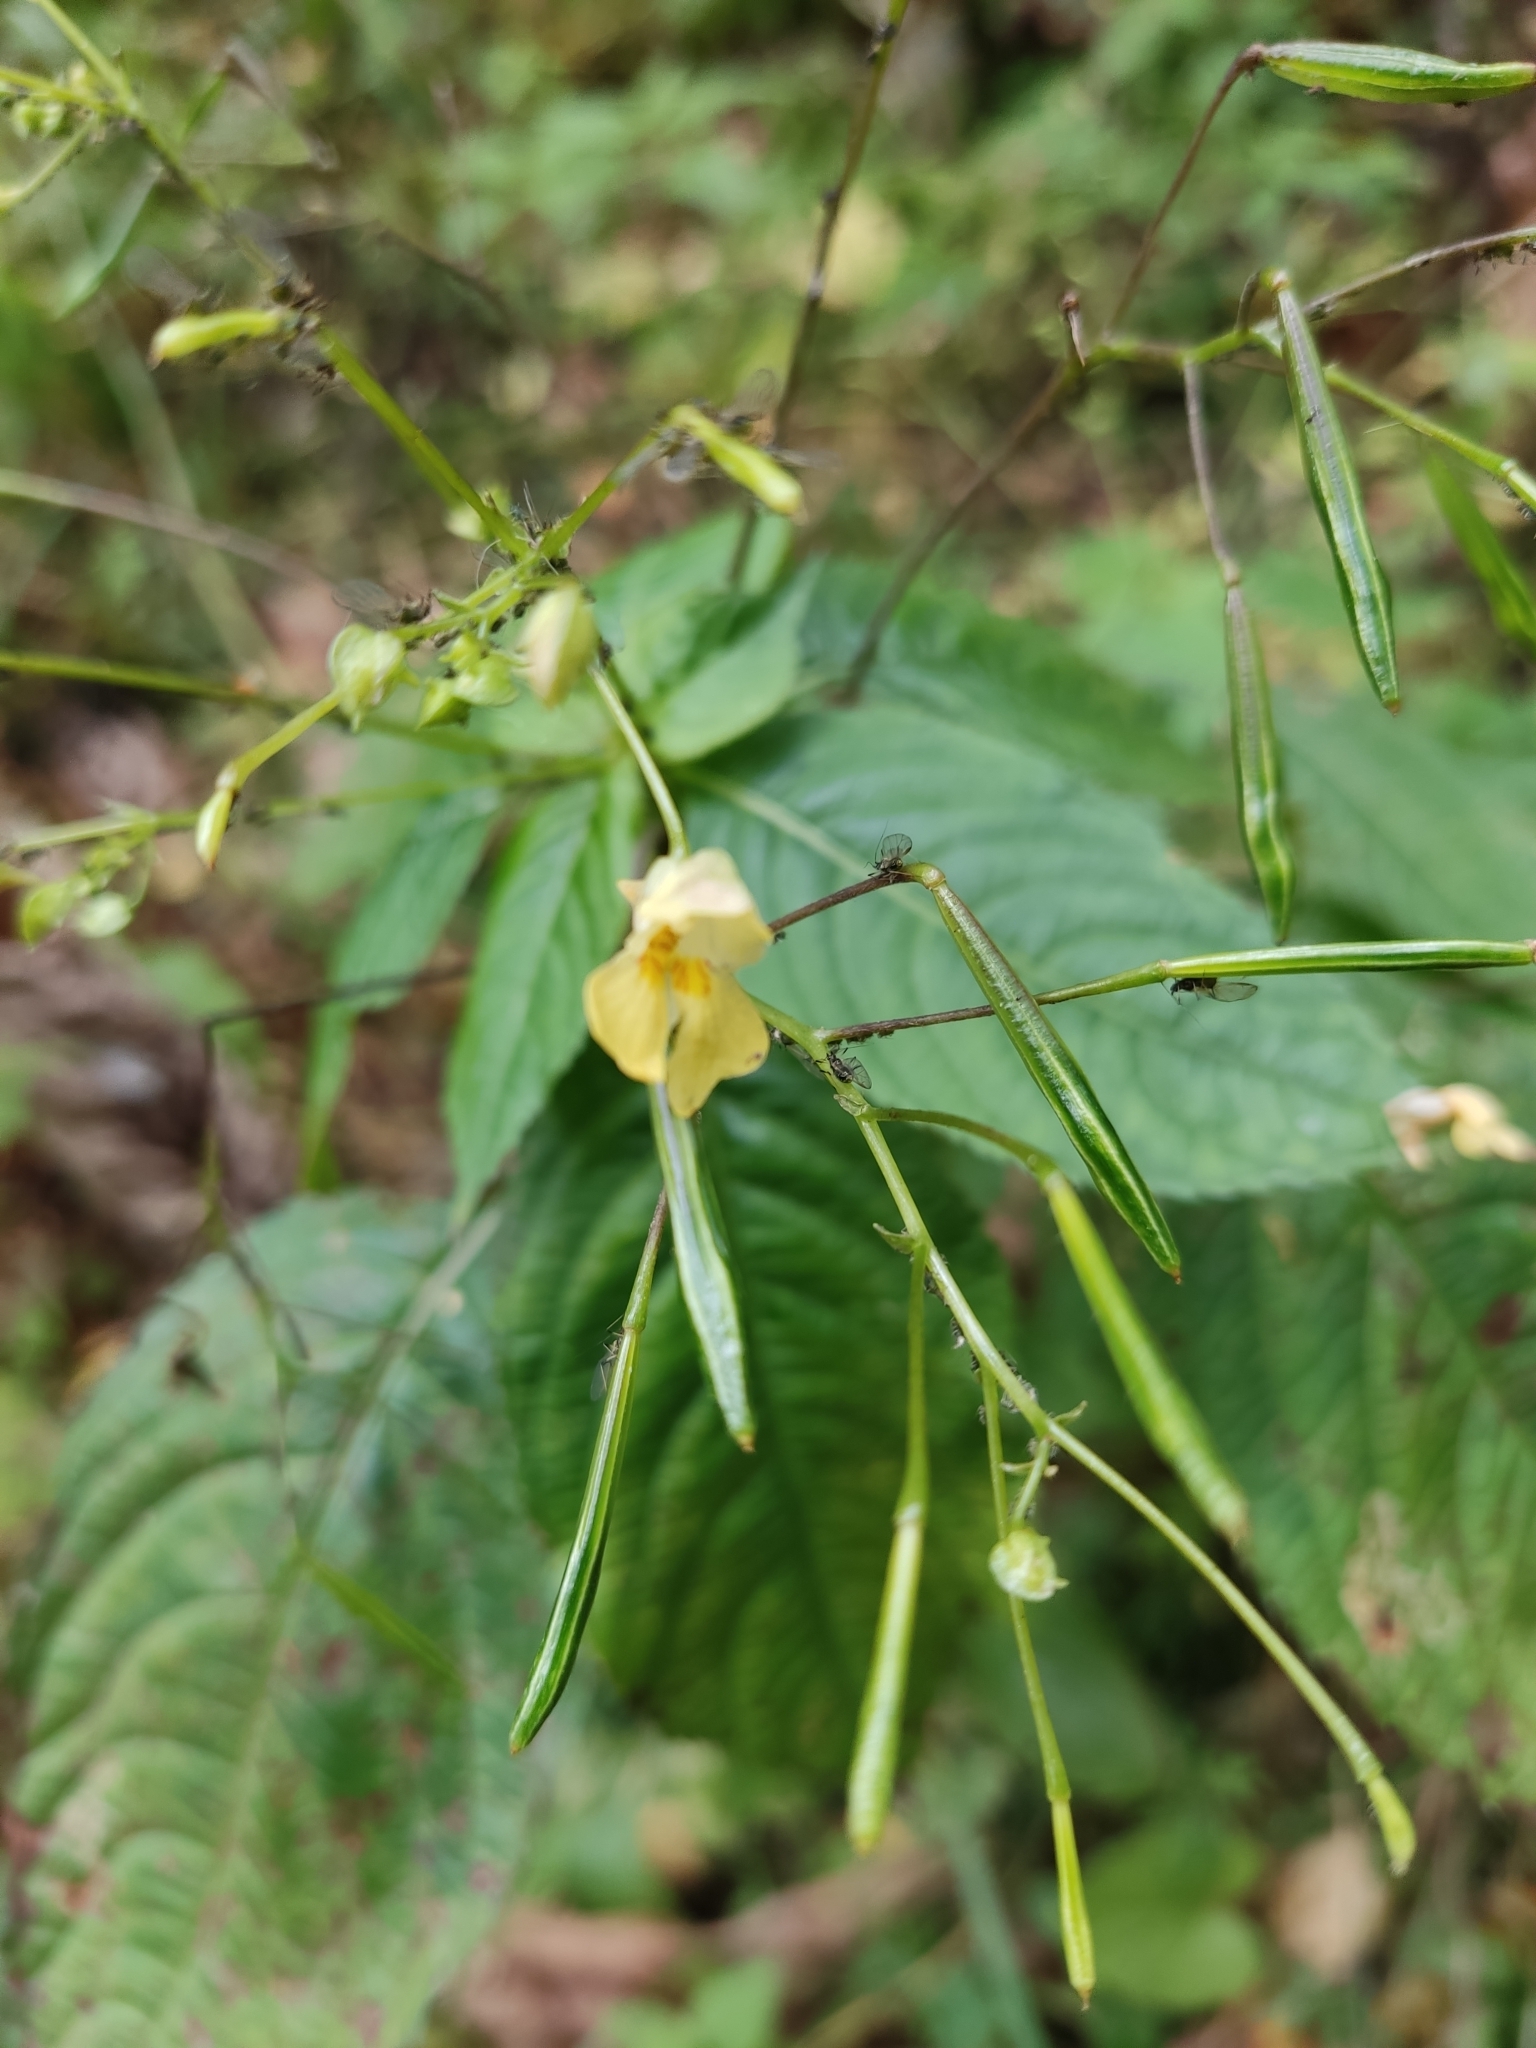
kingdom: Plantae
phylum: Tracheophyta
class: Magnoliopsida
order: Ericales
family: Balsaminaceae
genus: Impatiens
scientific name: Impatiens parviflora
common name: Small balsam
